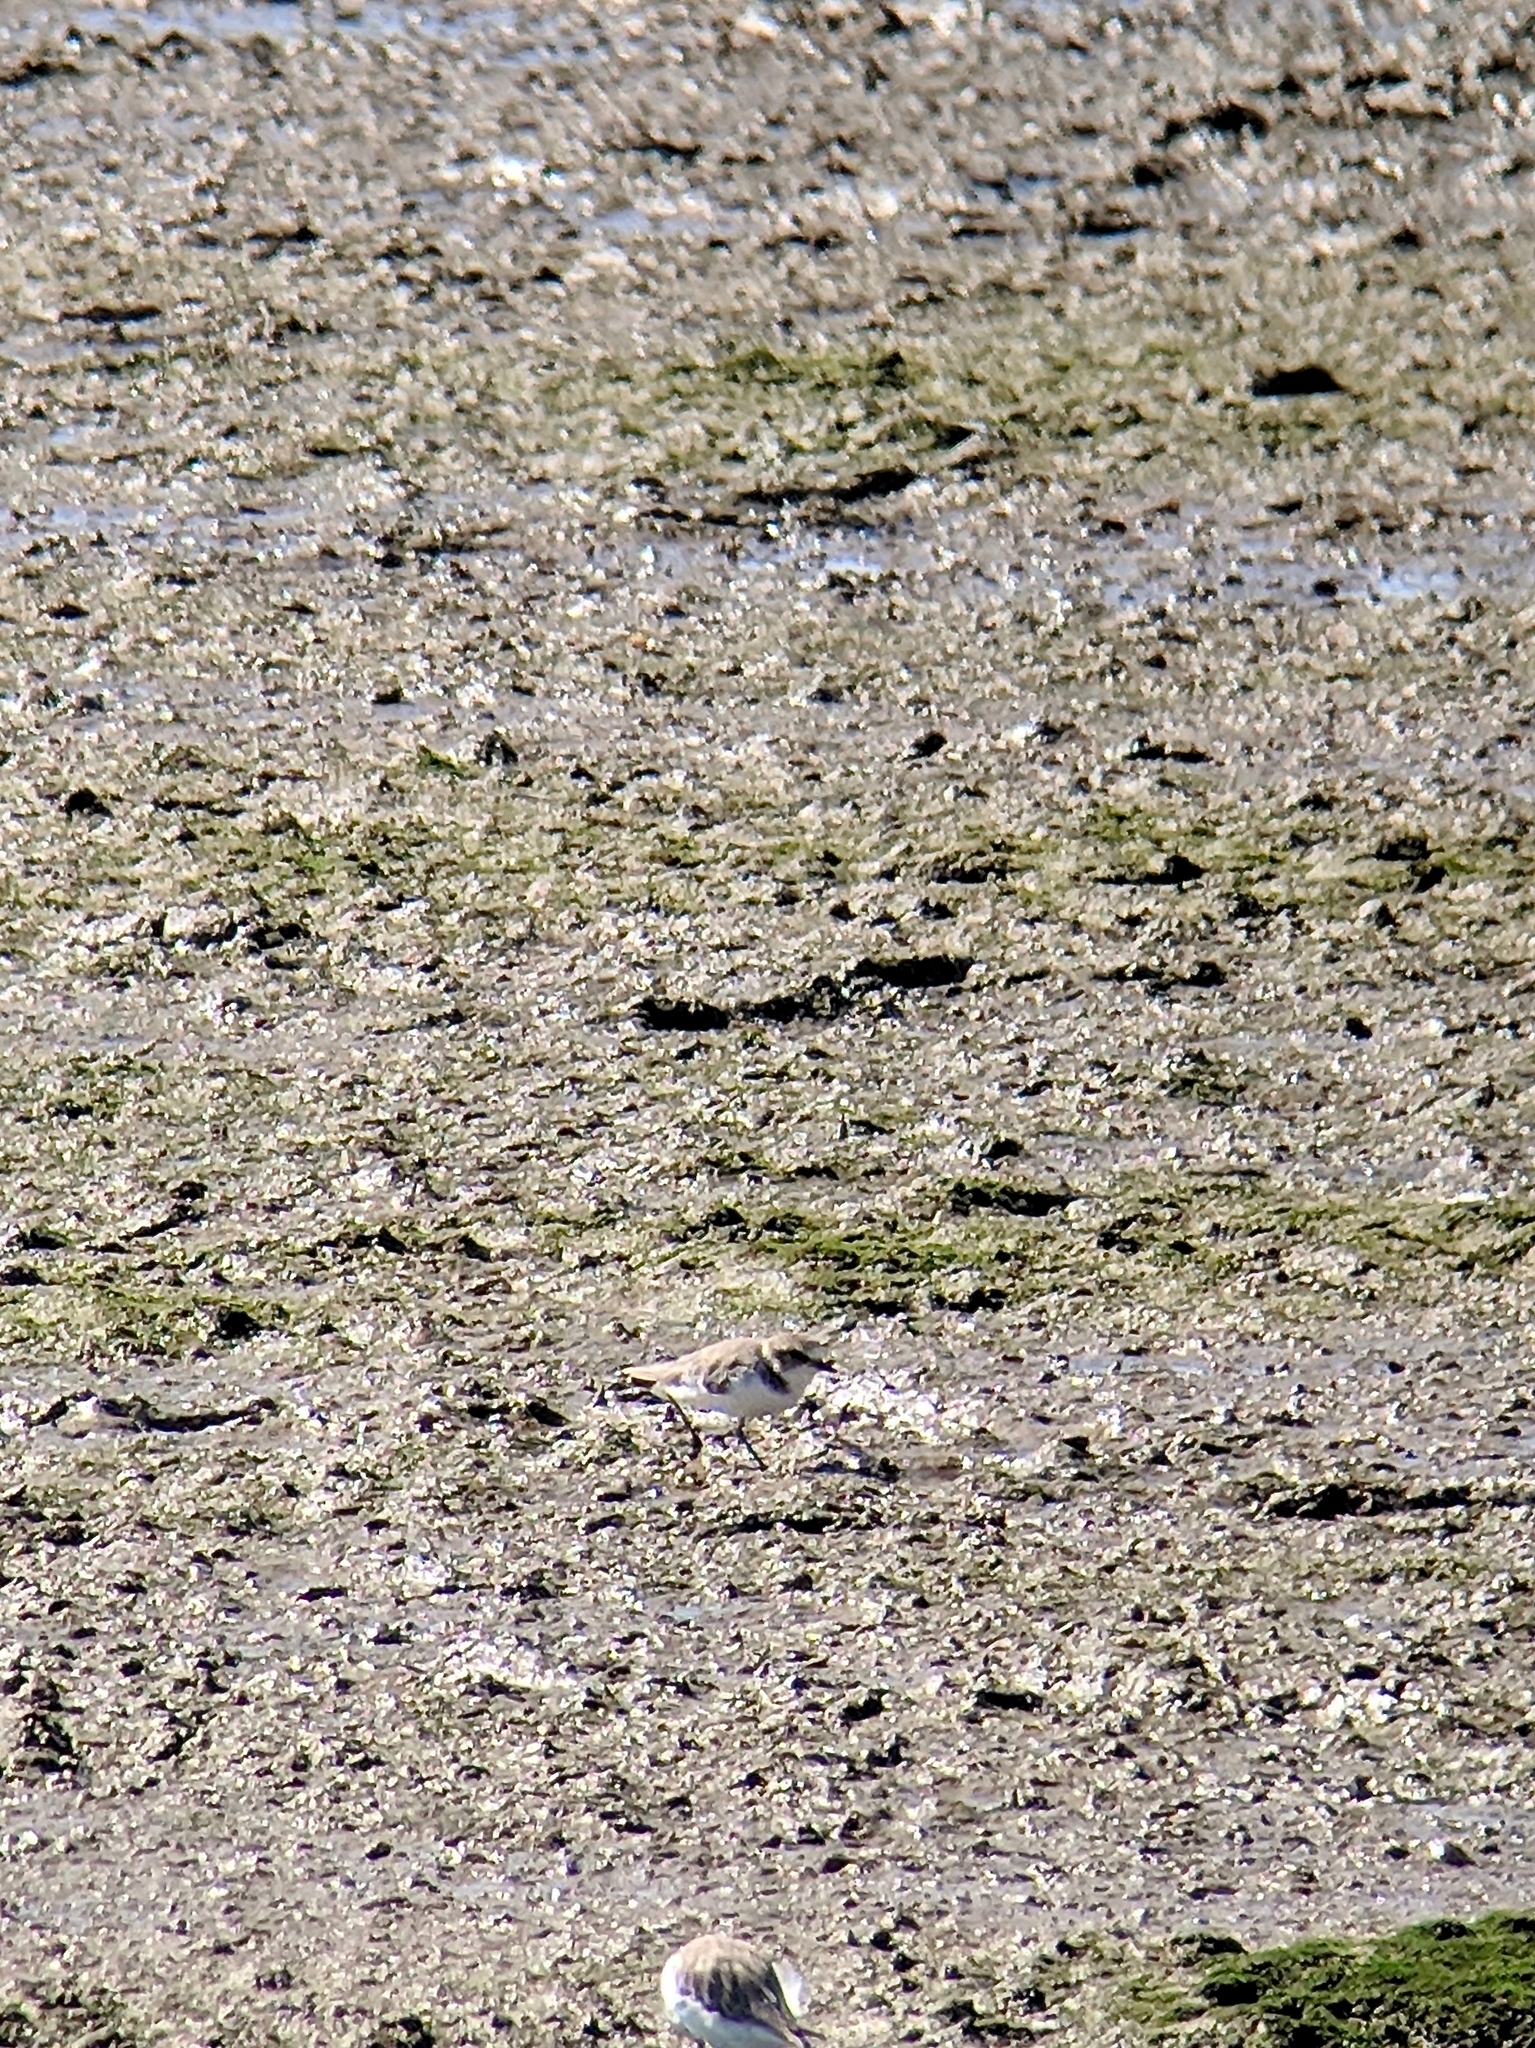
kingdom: Animalia
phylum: Chordata
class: Aves
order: Charadriiformes
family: Charadriidae
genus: Charadrius
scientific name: Charadrius alexandrinus
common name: Kentish plover
